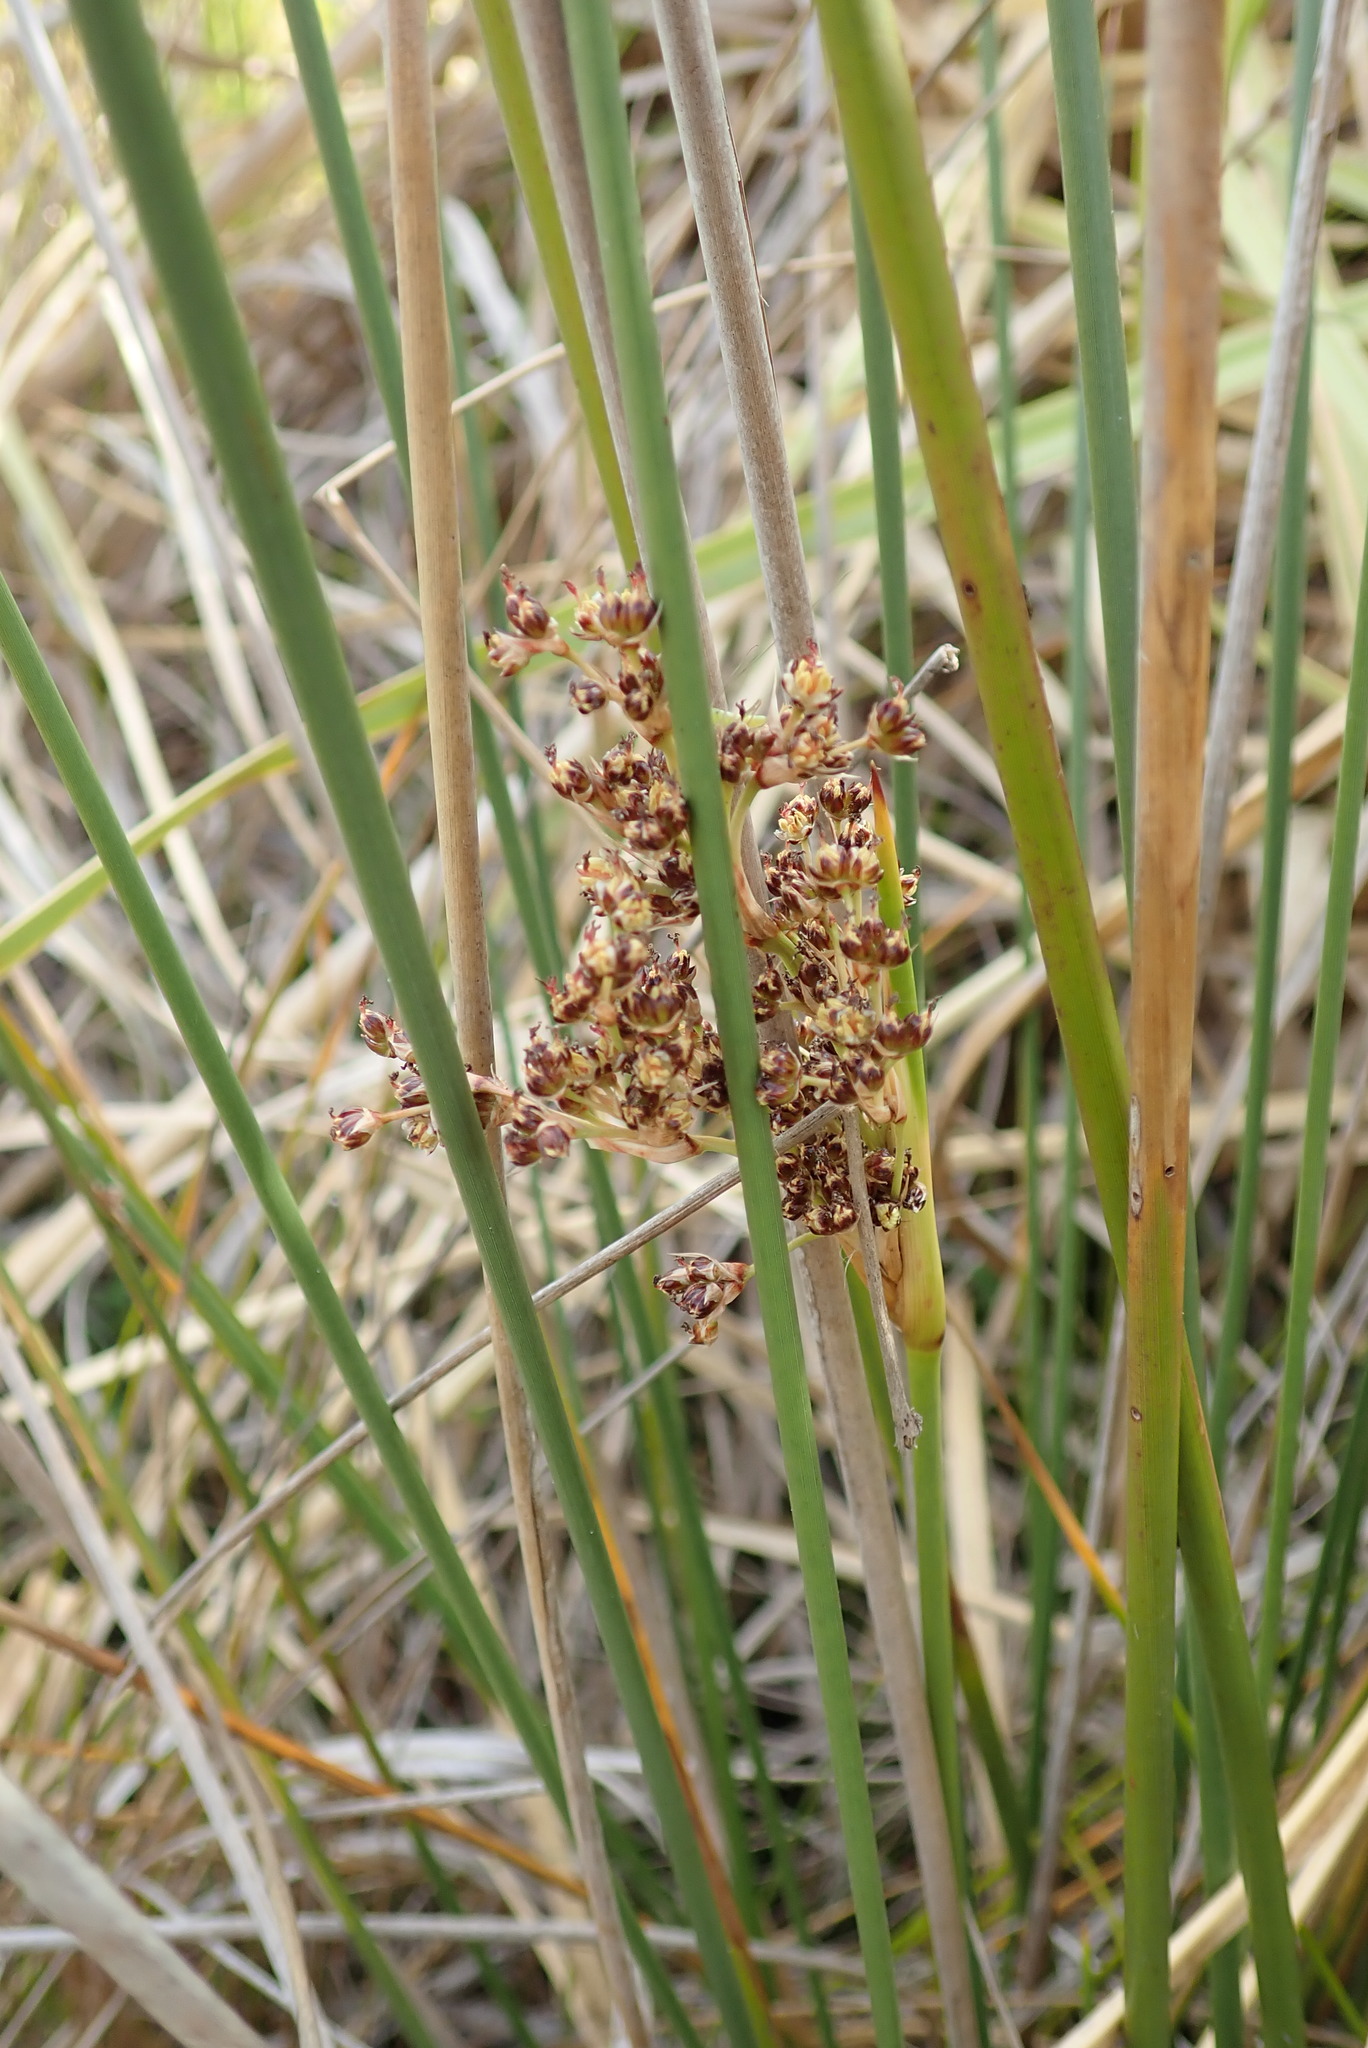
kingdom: Plantae
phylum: Tracheophyta
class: Liliopsida
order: Poales
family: Juncaceae
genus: Juncus
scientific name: Juncus acutus
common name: Sharp rush
